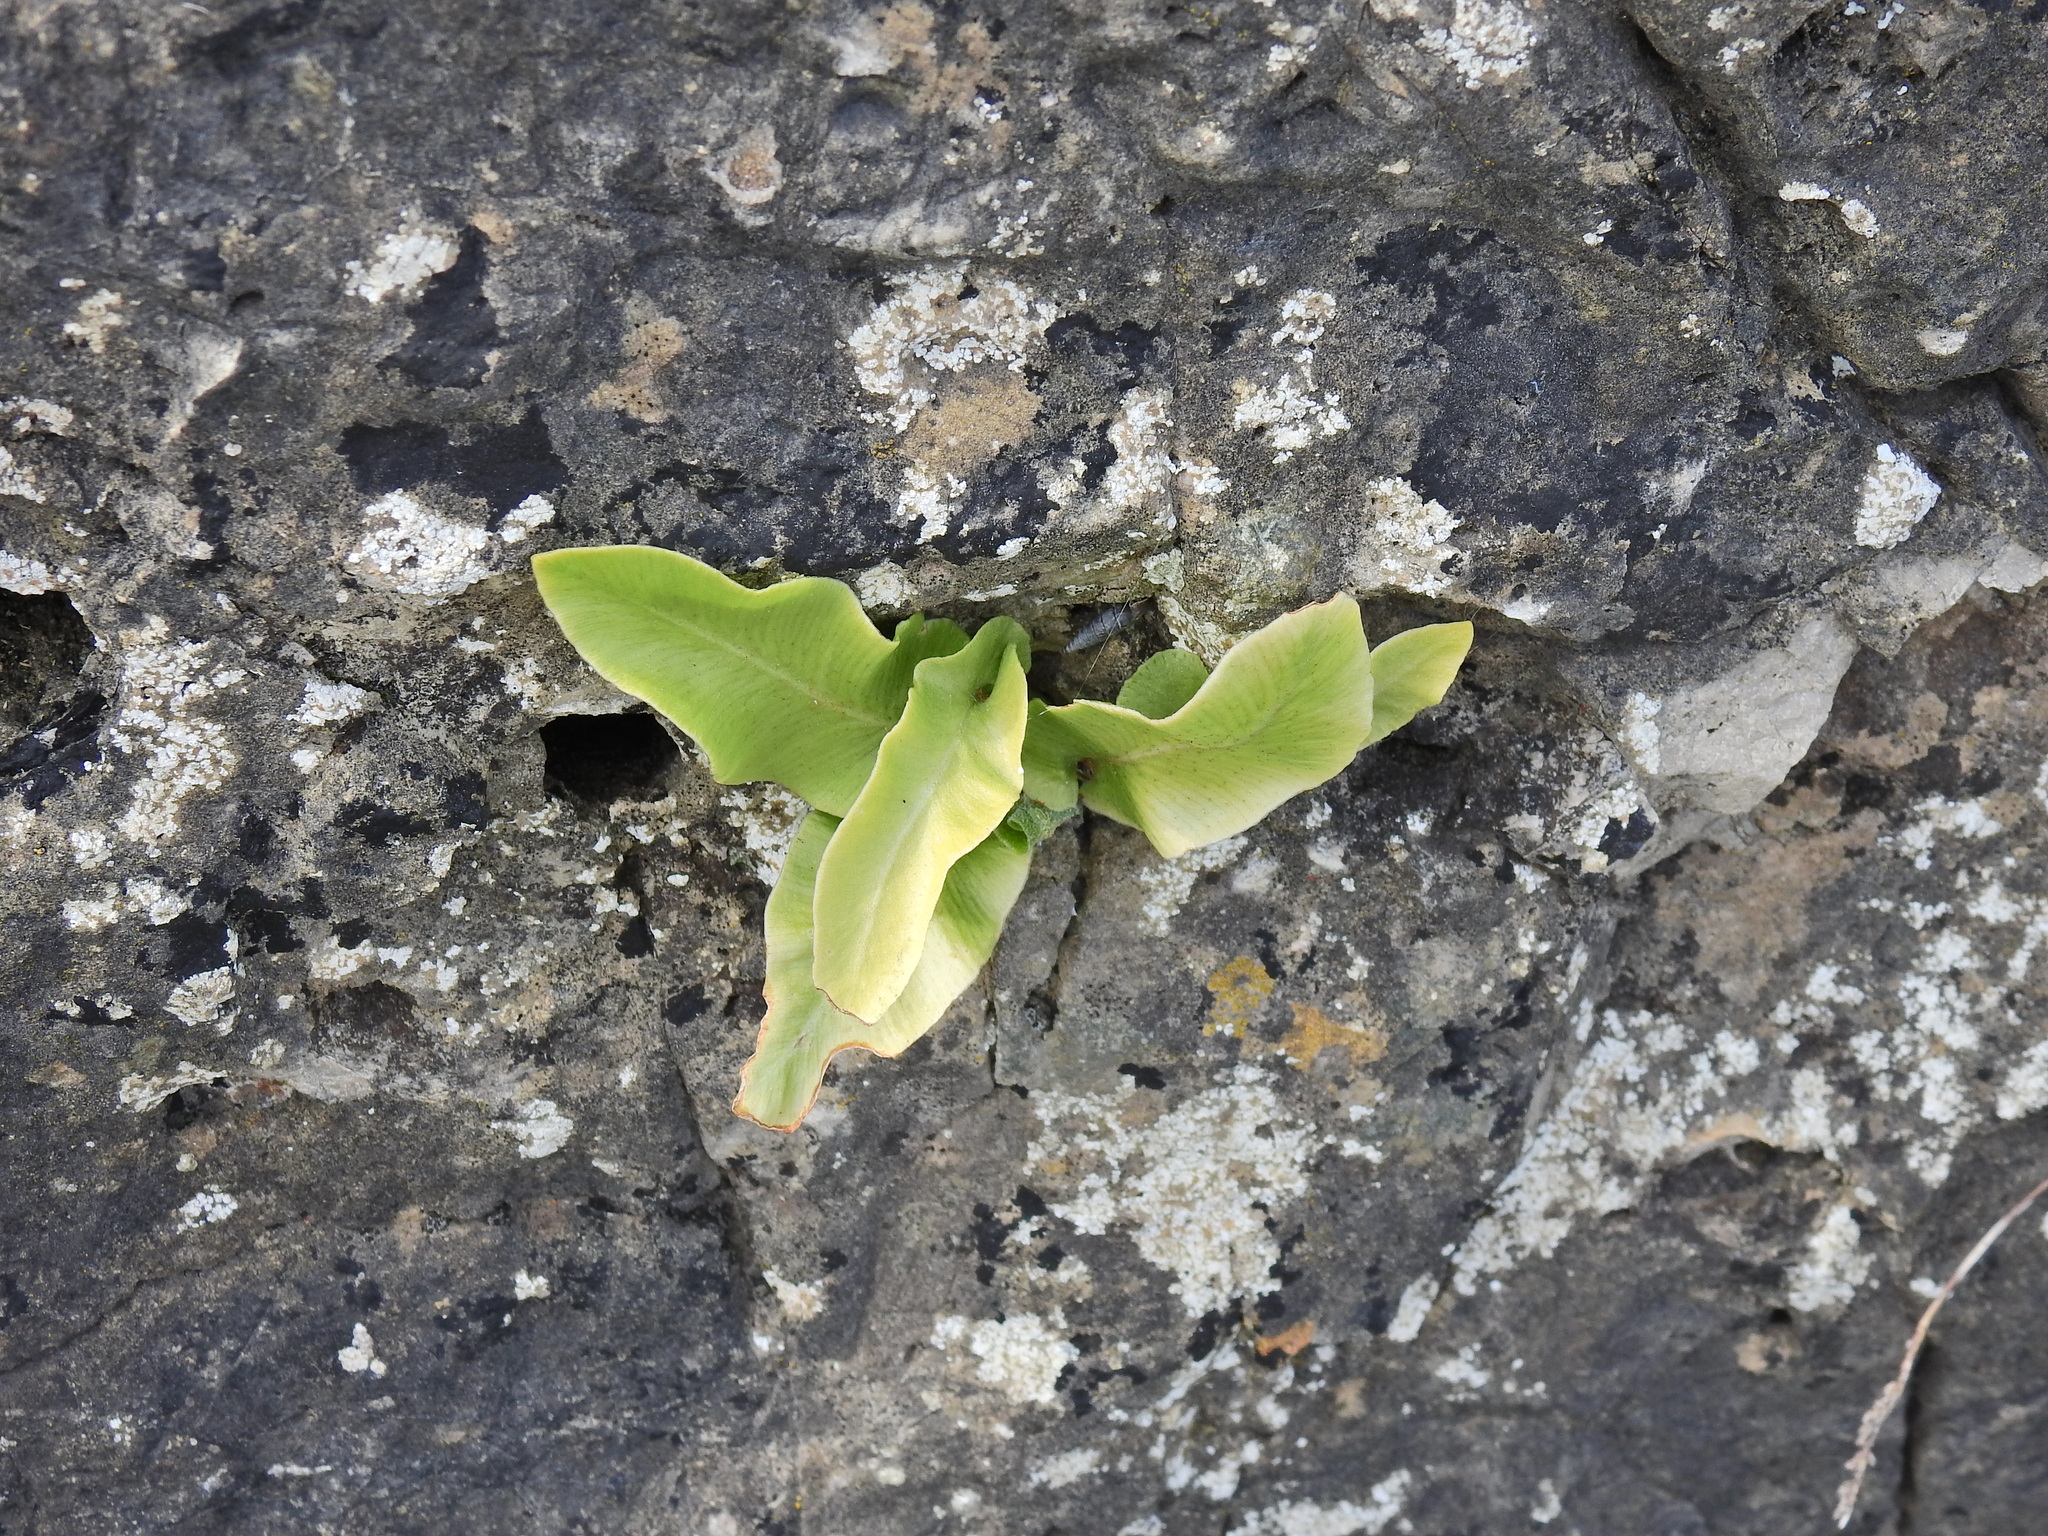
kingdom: Plantae
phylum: Tracheophyta
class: Polypodiopsida
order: Polypodiales
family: Aspleniaceae
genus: Asplenium
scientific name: Asplenium scolopendrium
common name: Hart's-tongue fern
